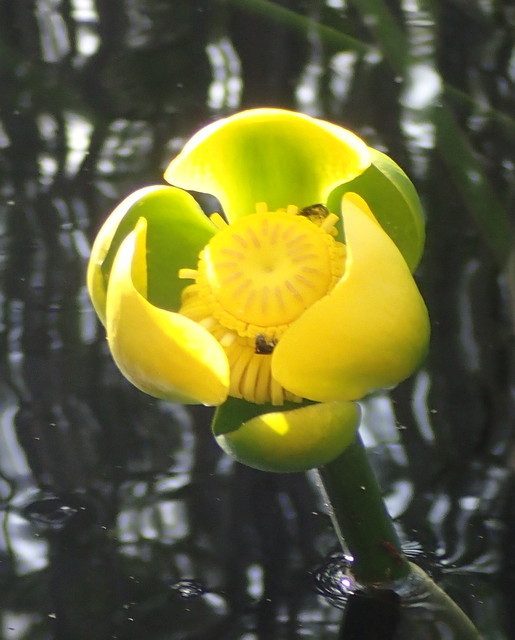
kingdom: Plantae
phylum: Tracheophyta
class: Magnoliopsida
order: Nymphaeales
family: Nymphaeaceae
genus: Nuphar
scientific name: Nuphar advena
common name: Spatter-dock
